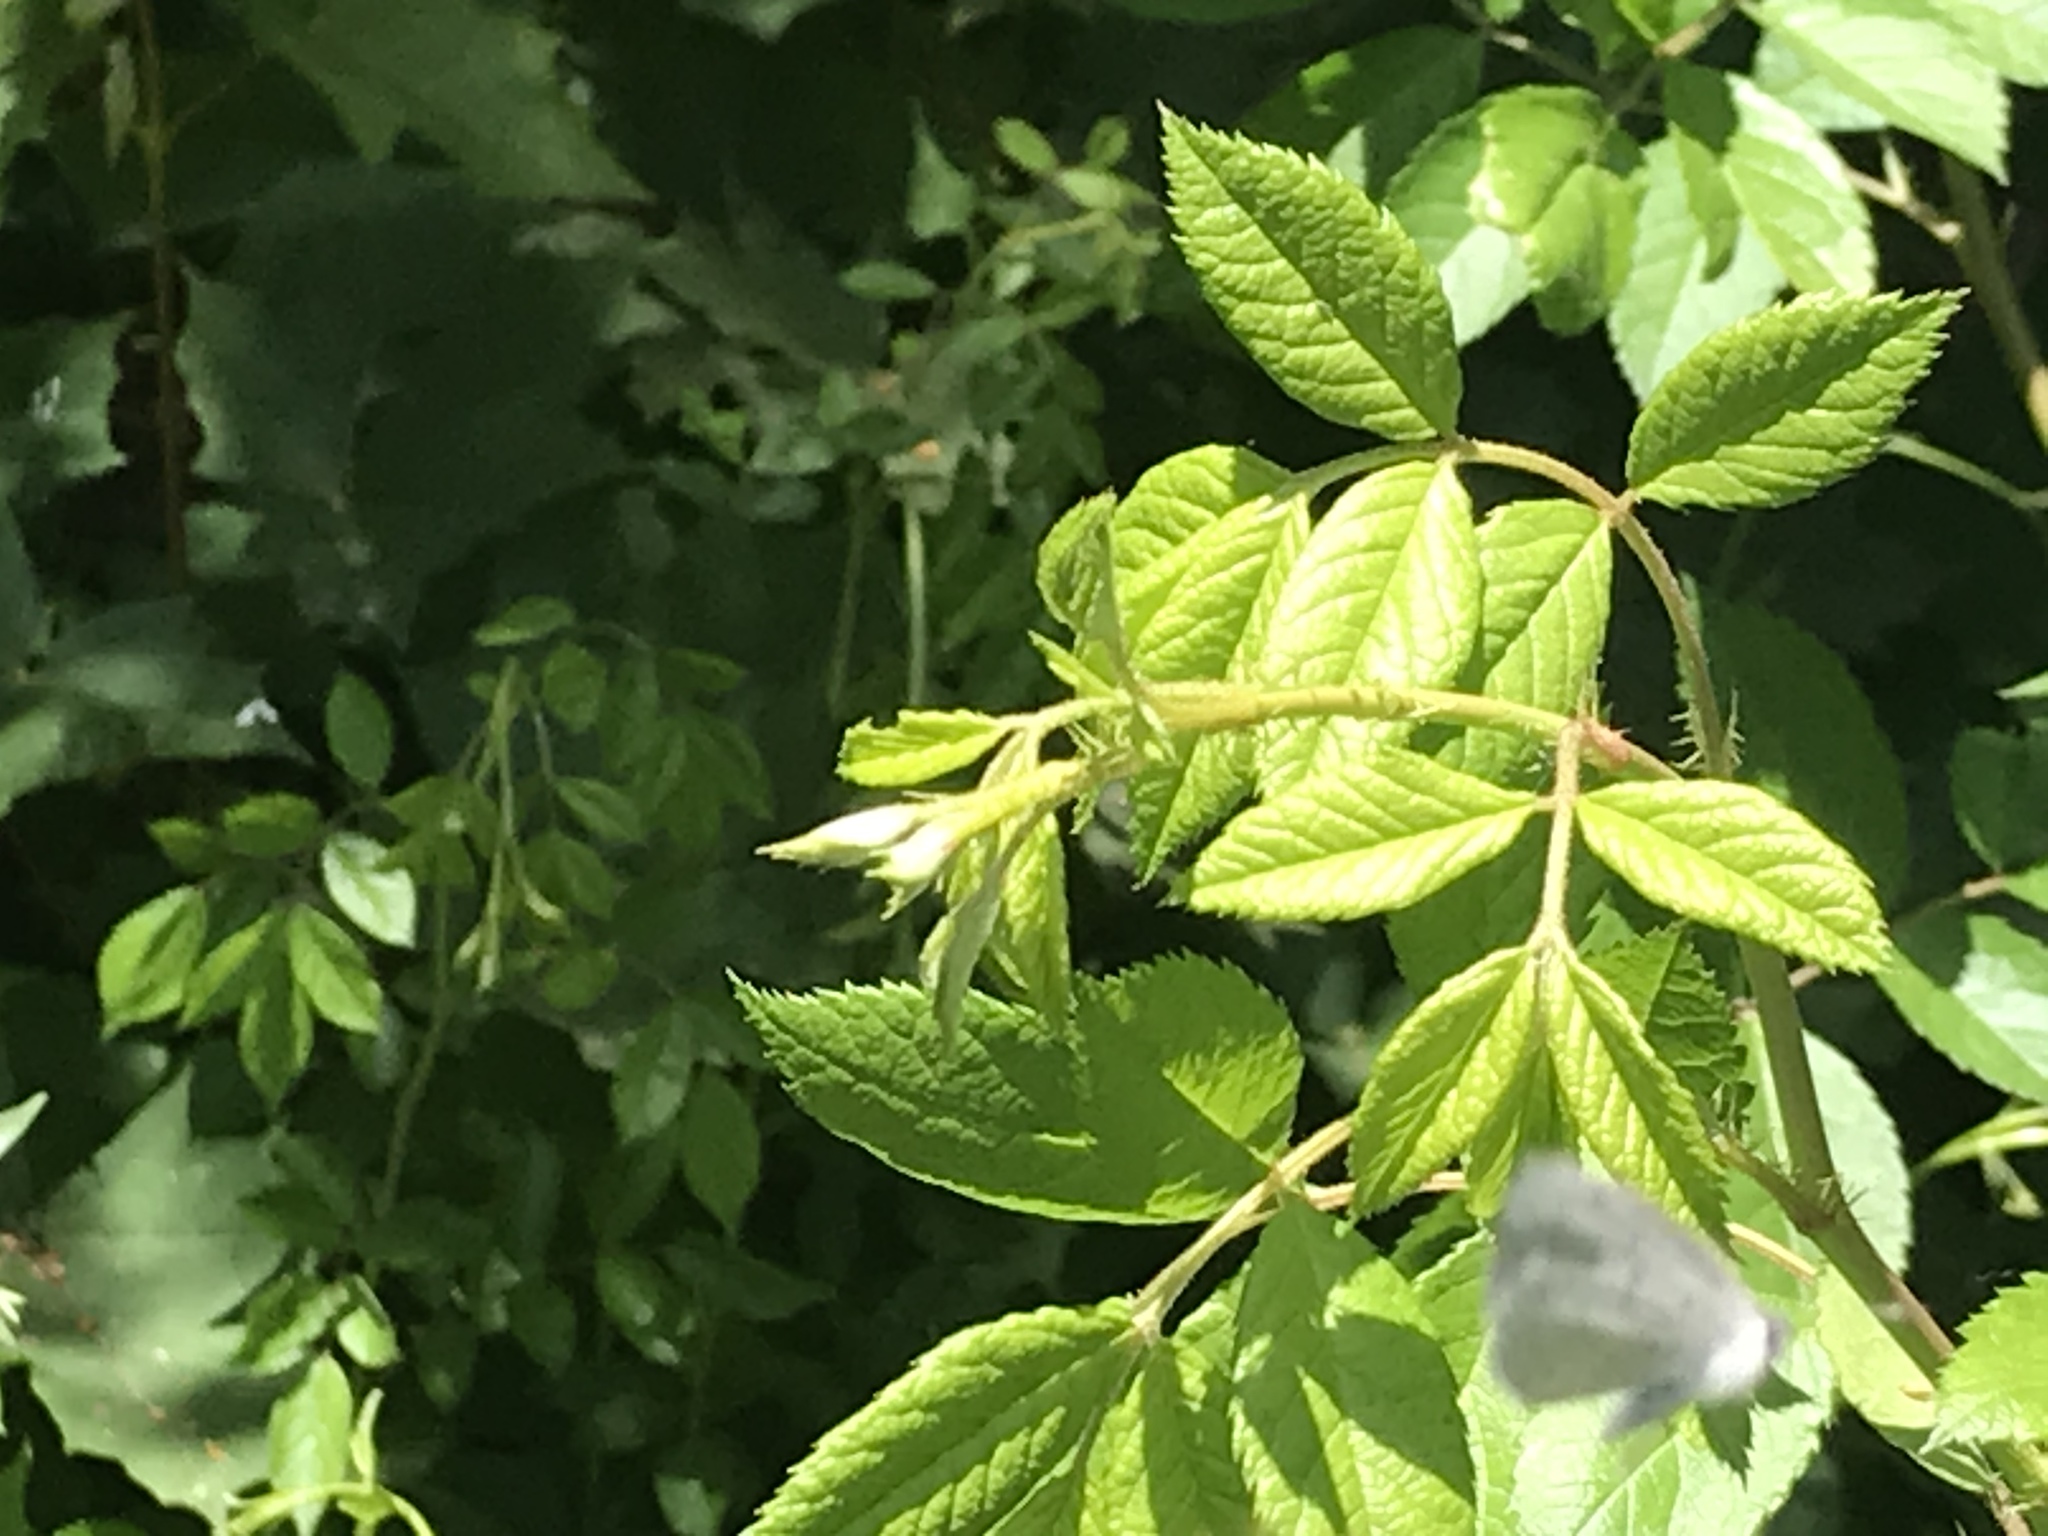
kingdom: Animalia
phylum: Arthropoda
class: Insecta
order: Lepidoptera
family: Lycaenidae
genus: Celastrina
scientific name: Celastrina lucia
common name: Lucia azure
